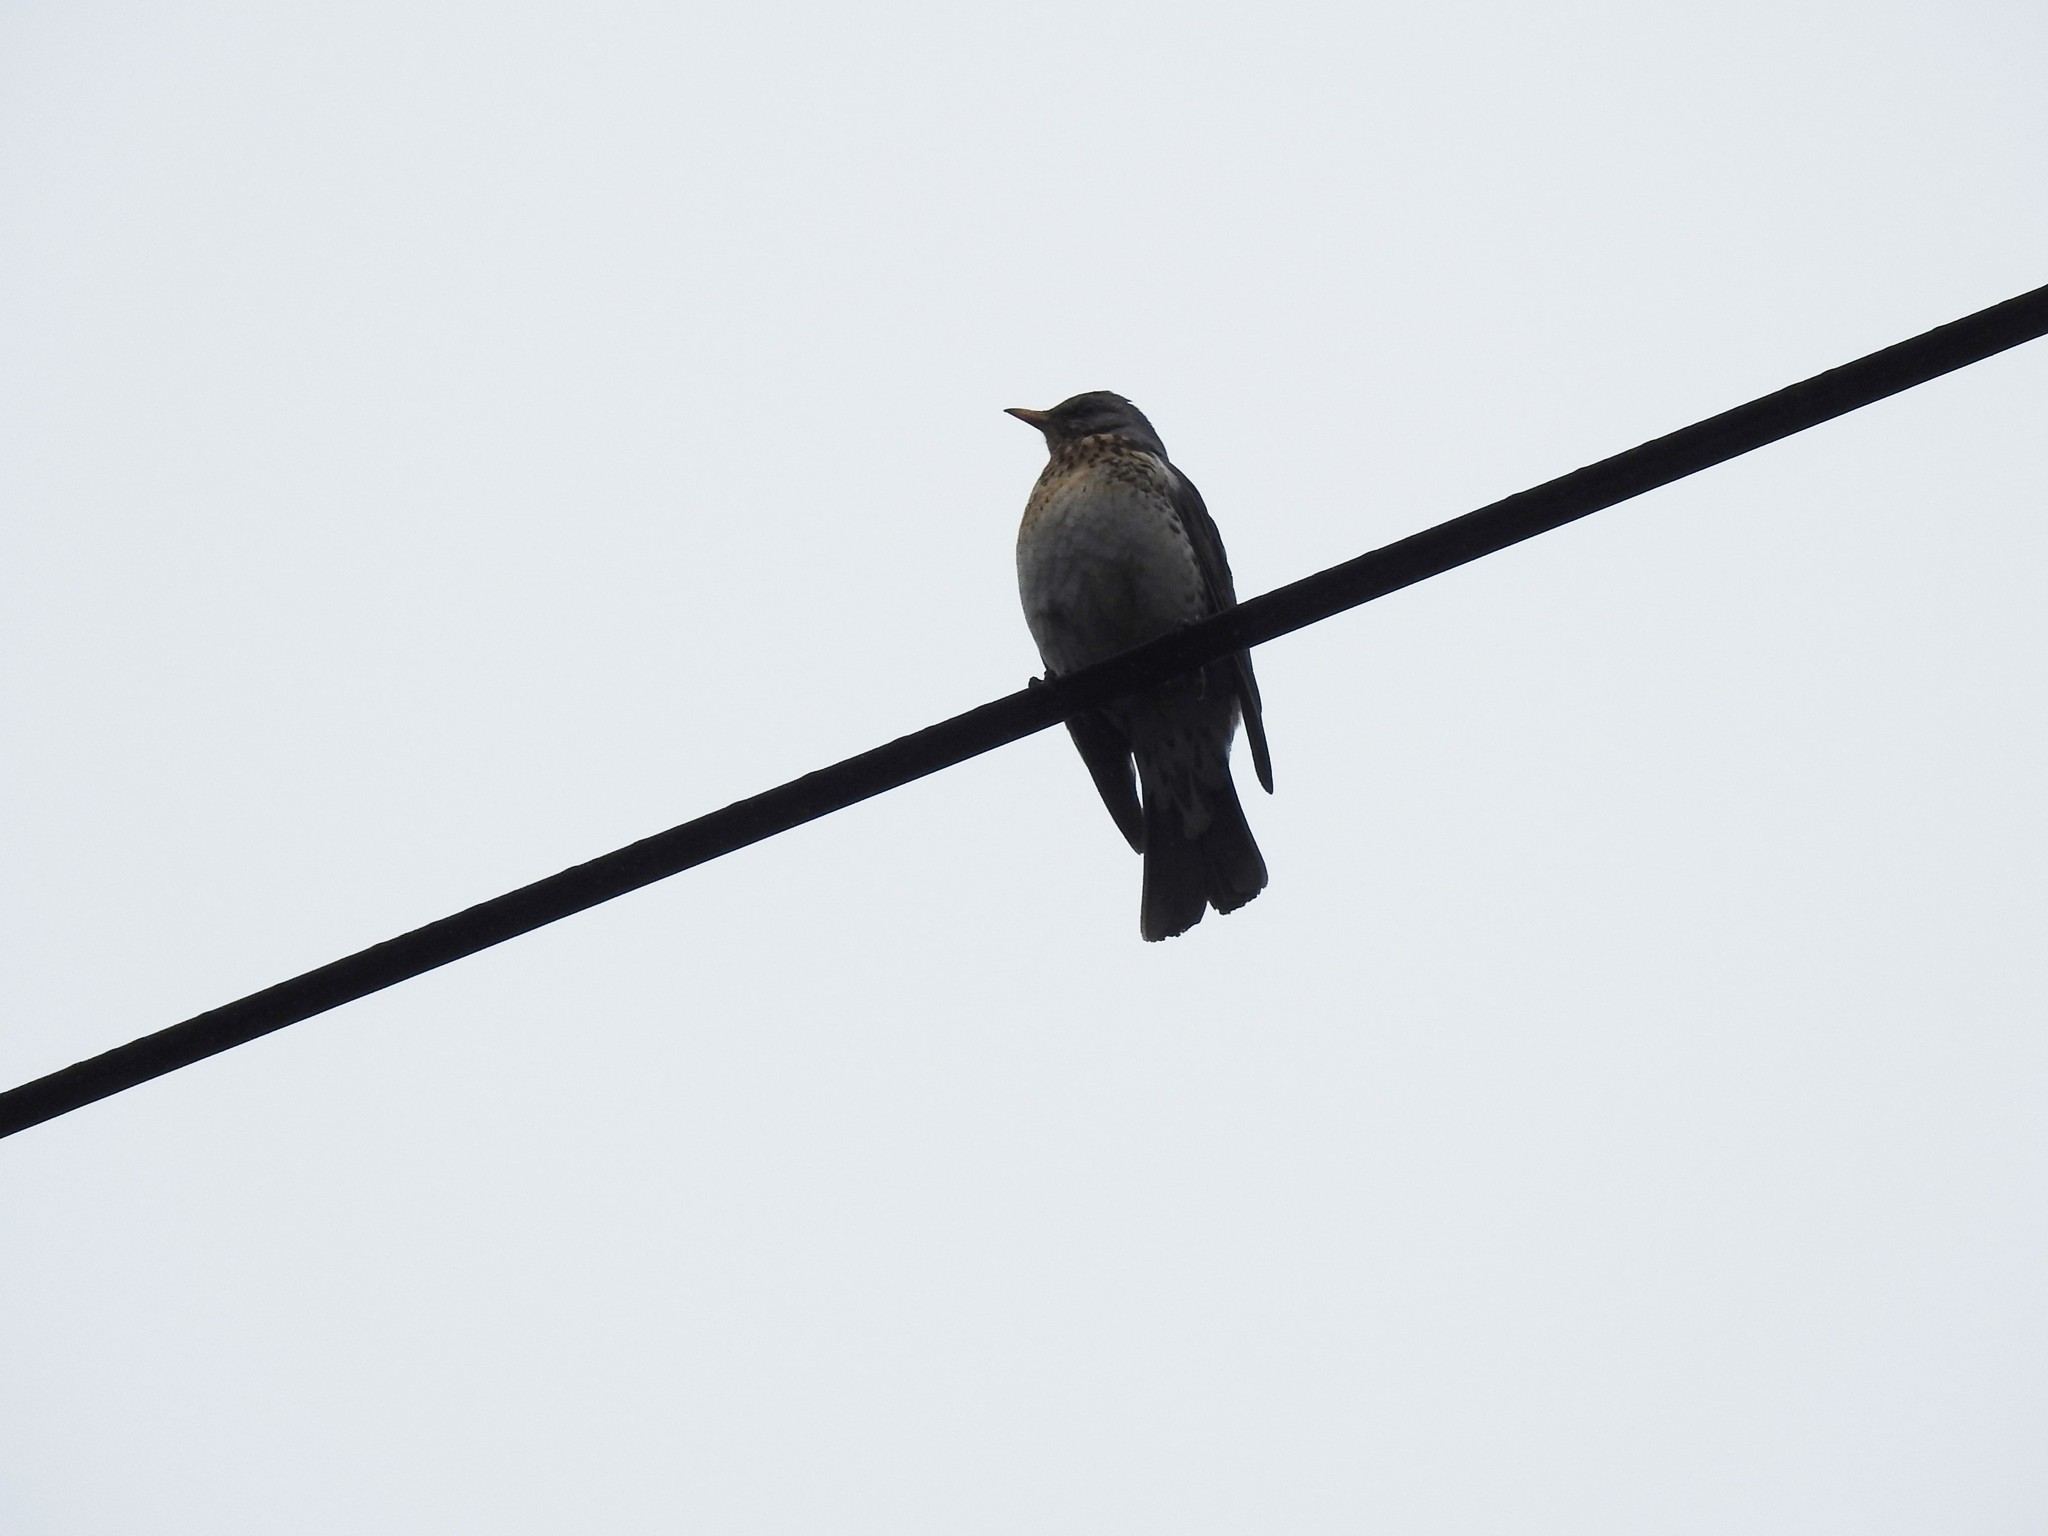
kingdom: Animalia
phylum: Chordata
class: Aves
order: Passeriformes
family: Turdidae
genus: Turdus
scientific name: Turdus pilaris
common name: Fieldfare
